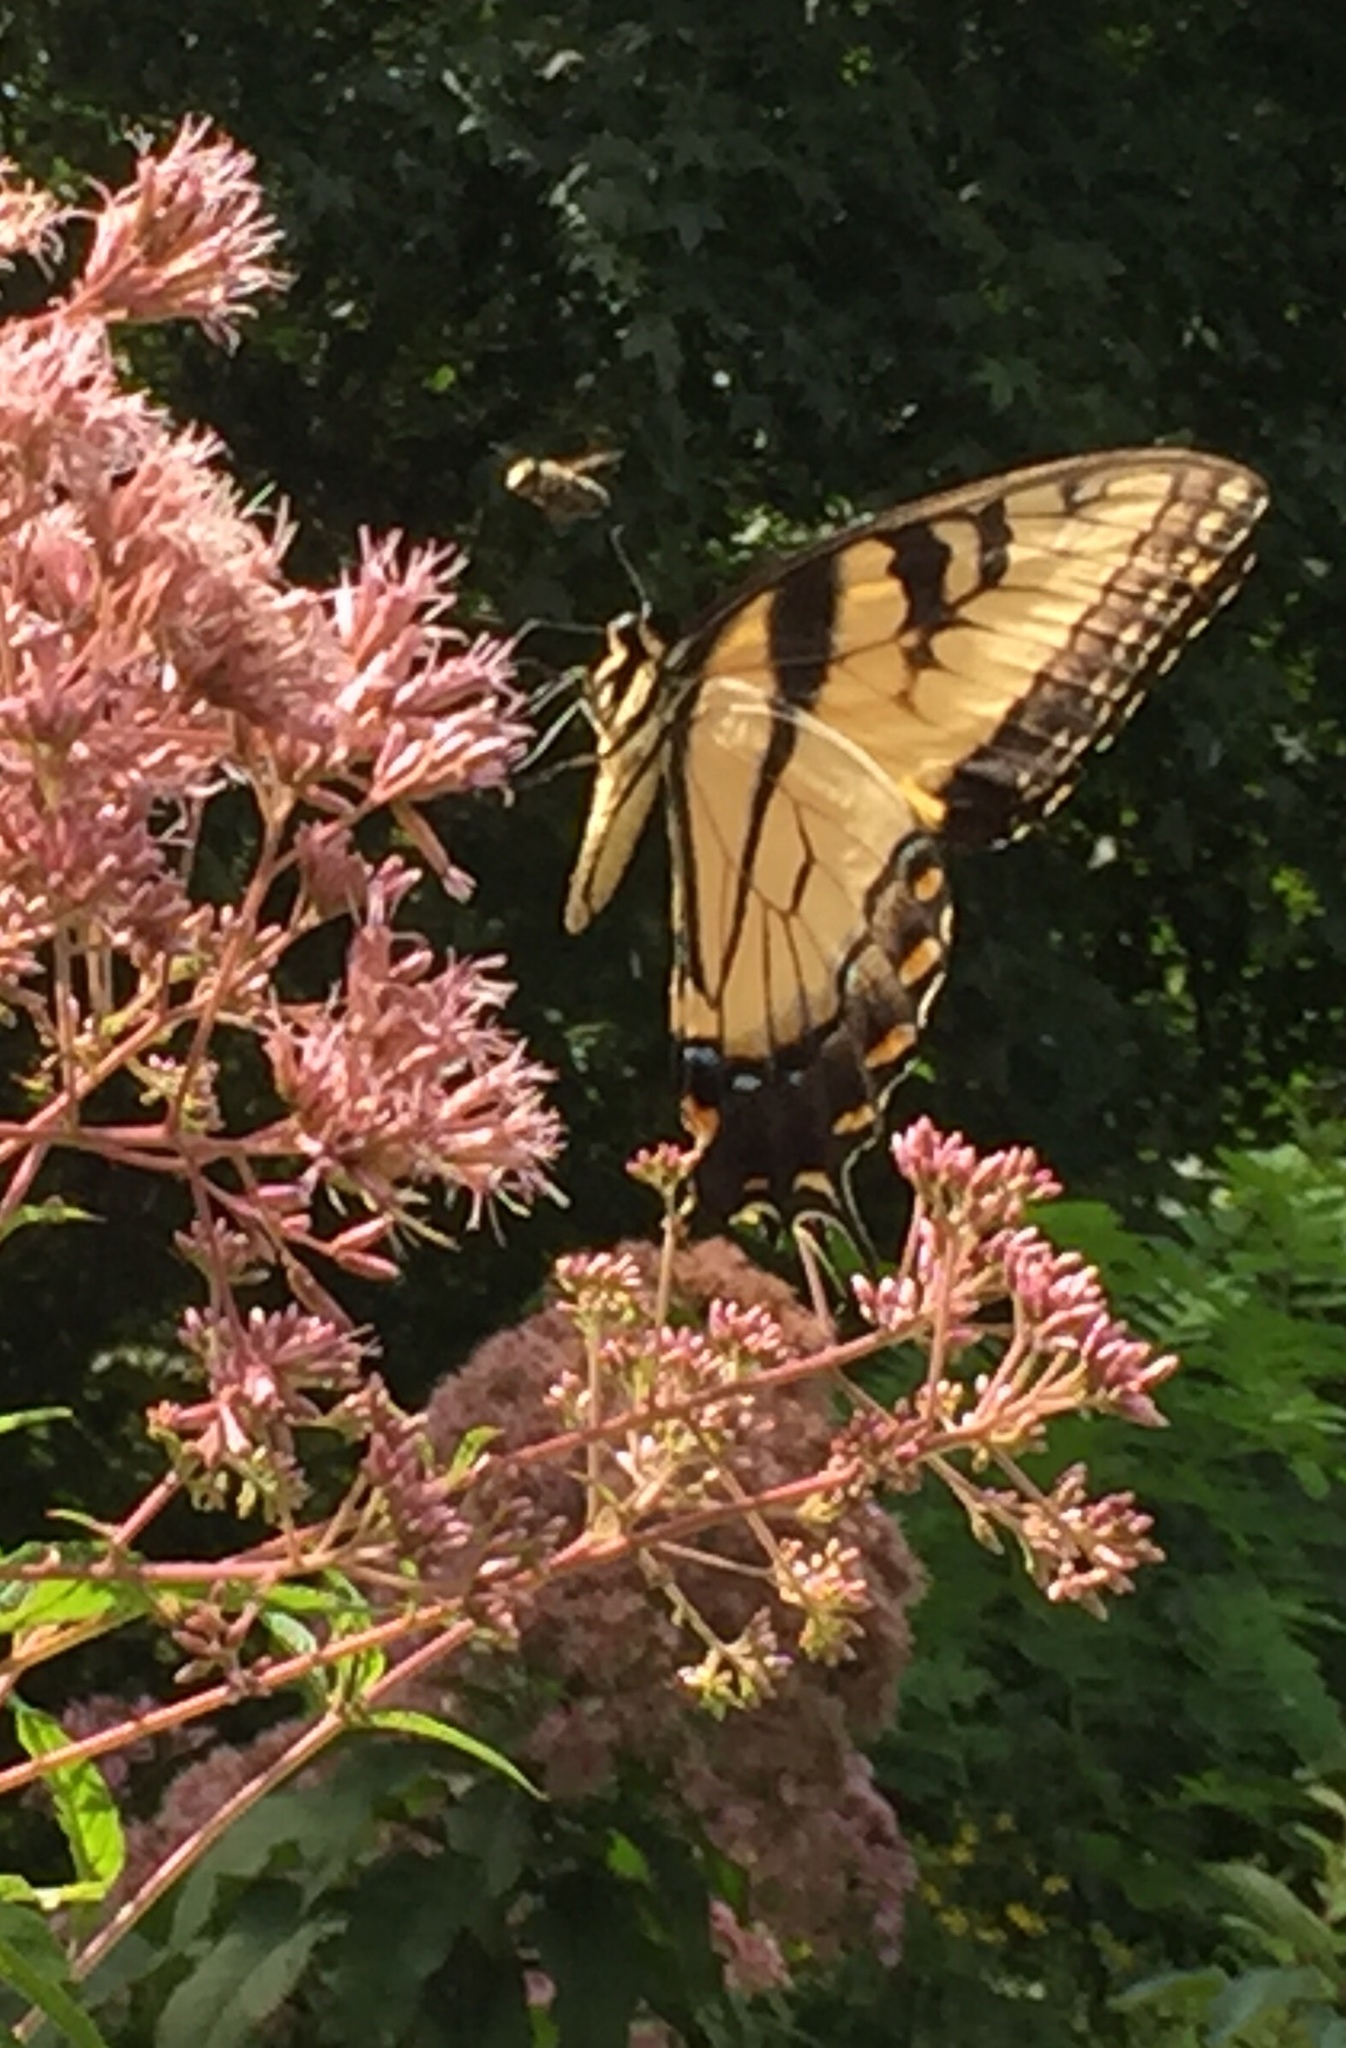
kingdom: Animalia
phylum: Arthropoda
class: Insecta
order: Lepidoptera
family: Papilionidae
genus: Papilio
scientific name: Papilio glaucus
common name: Tiger swallowtail
